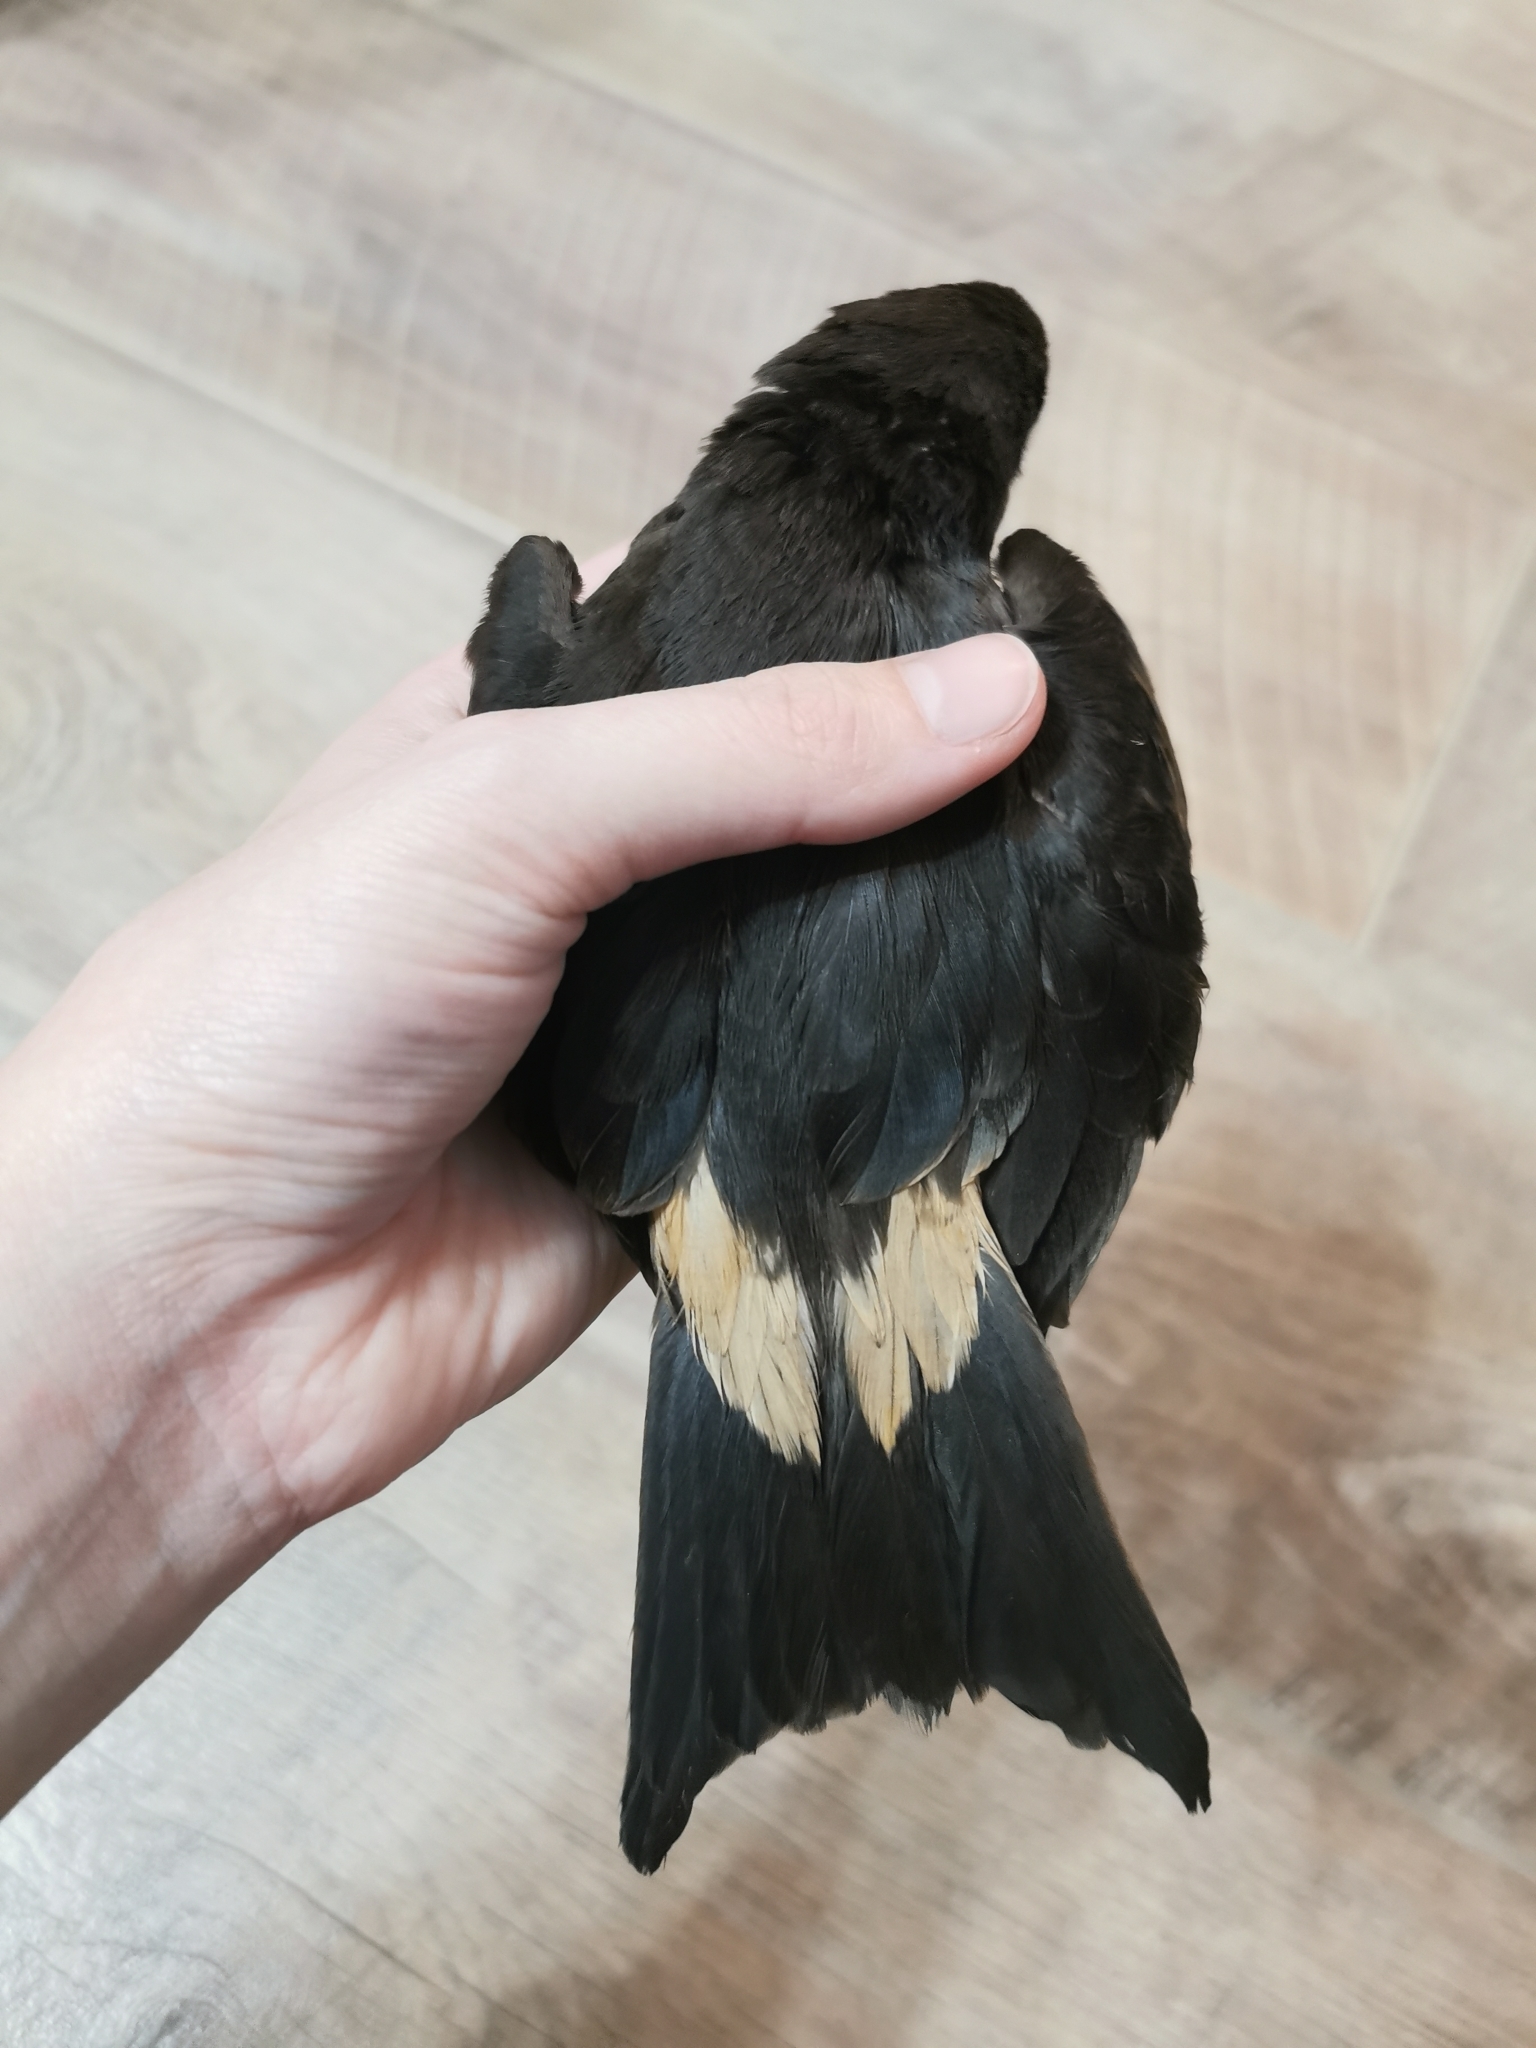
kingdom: Animalia
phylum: Chordata
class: Aves
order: Procellariiformes
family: Hydrobatidae
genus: Oceanodroma
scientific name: Oceanodroma leucorhoa
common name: Leach's storm-petrel
